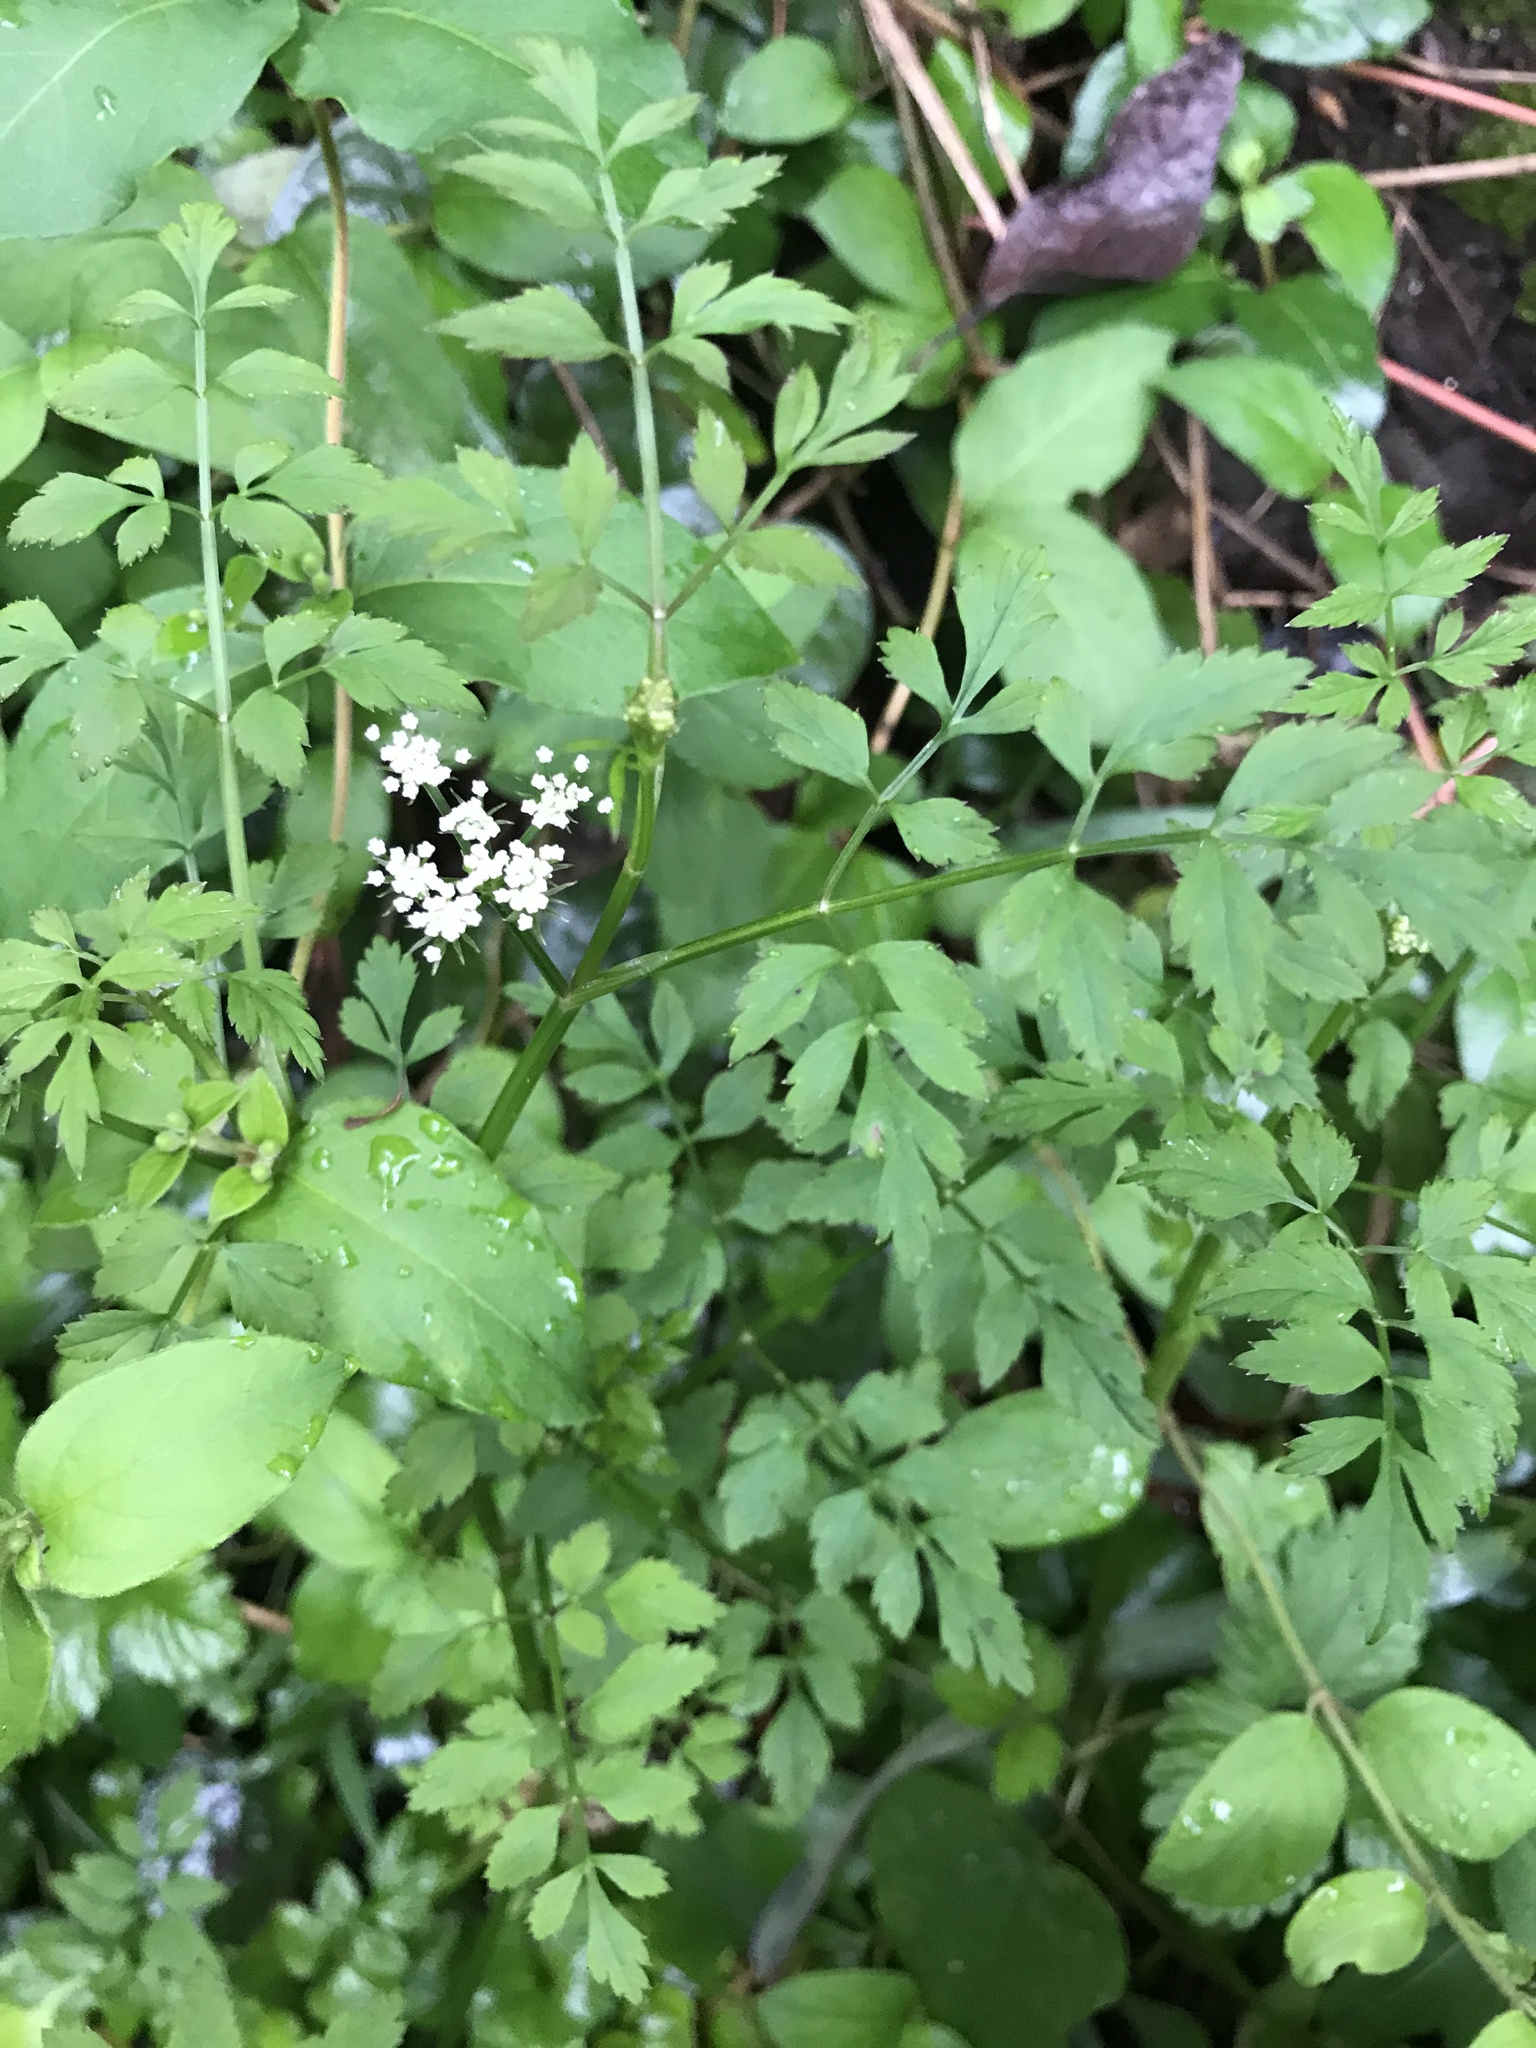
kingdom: Plantae
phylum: Tracheophyta
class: Magnoliopsida
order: Apiales
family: Apiaceae
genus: Oenanthe
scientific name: Oenanthe javanica
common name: Java water-dropwort
